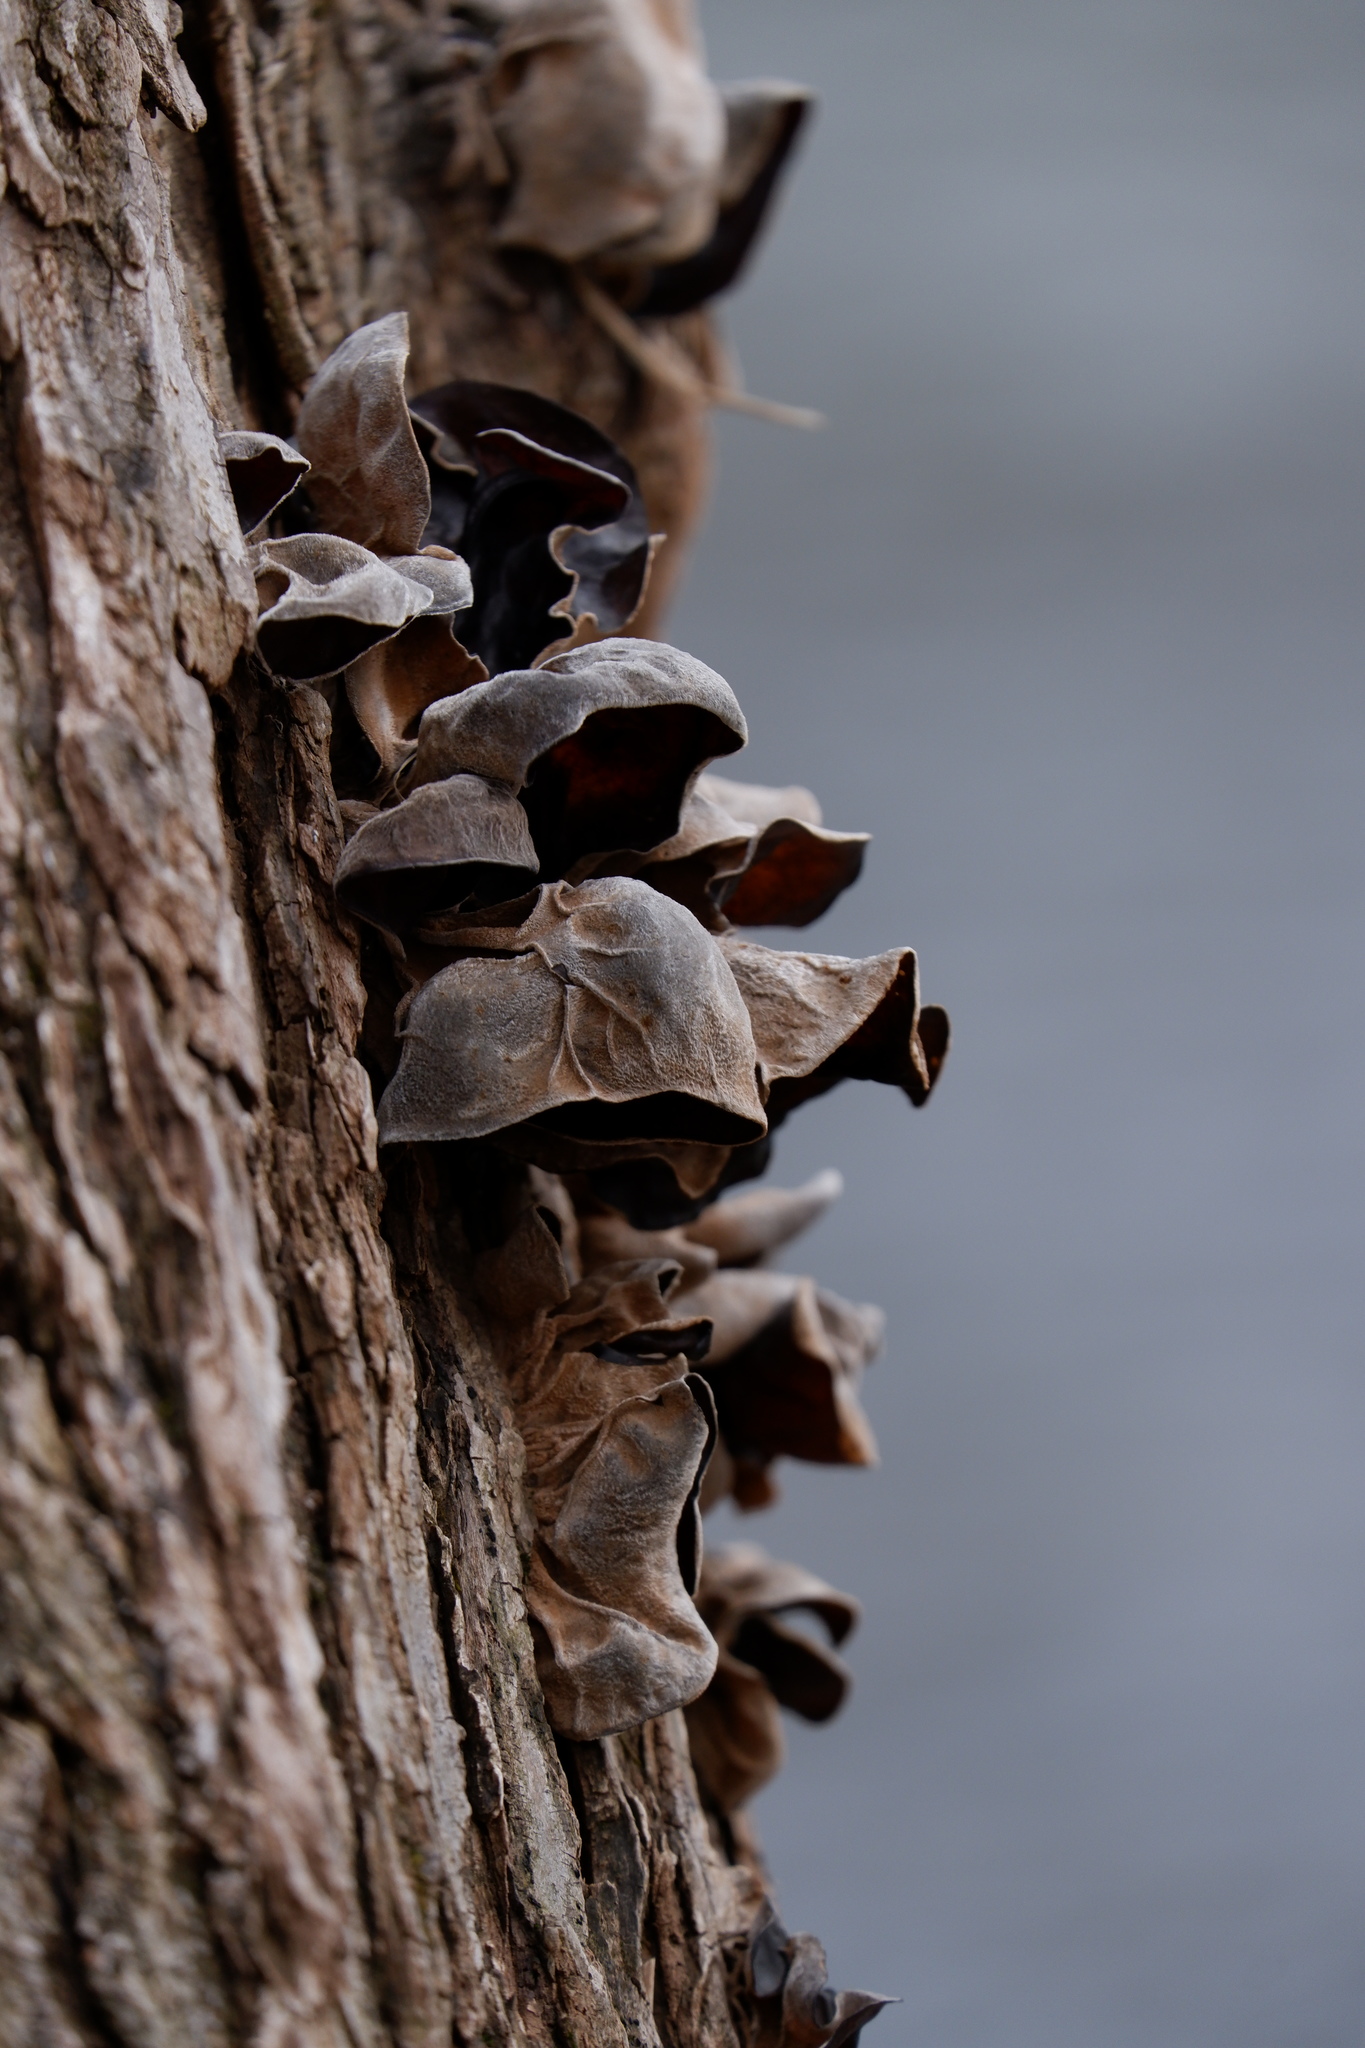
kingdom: Fungi
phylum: Basidiomycota
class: Agaricomycetes
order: Auriculariales
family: Auriculariaceae
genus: Auricularia
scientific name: Auricularia nigricans
